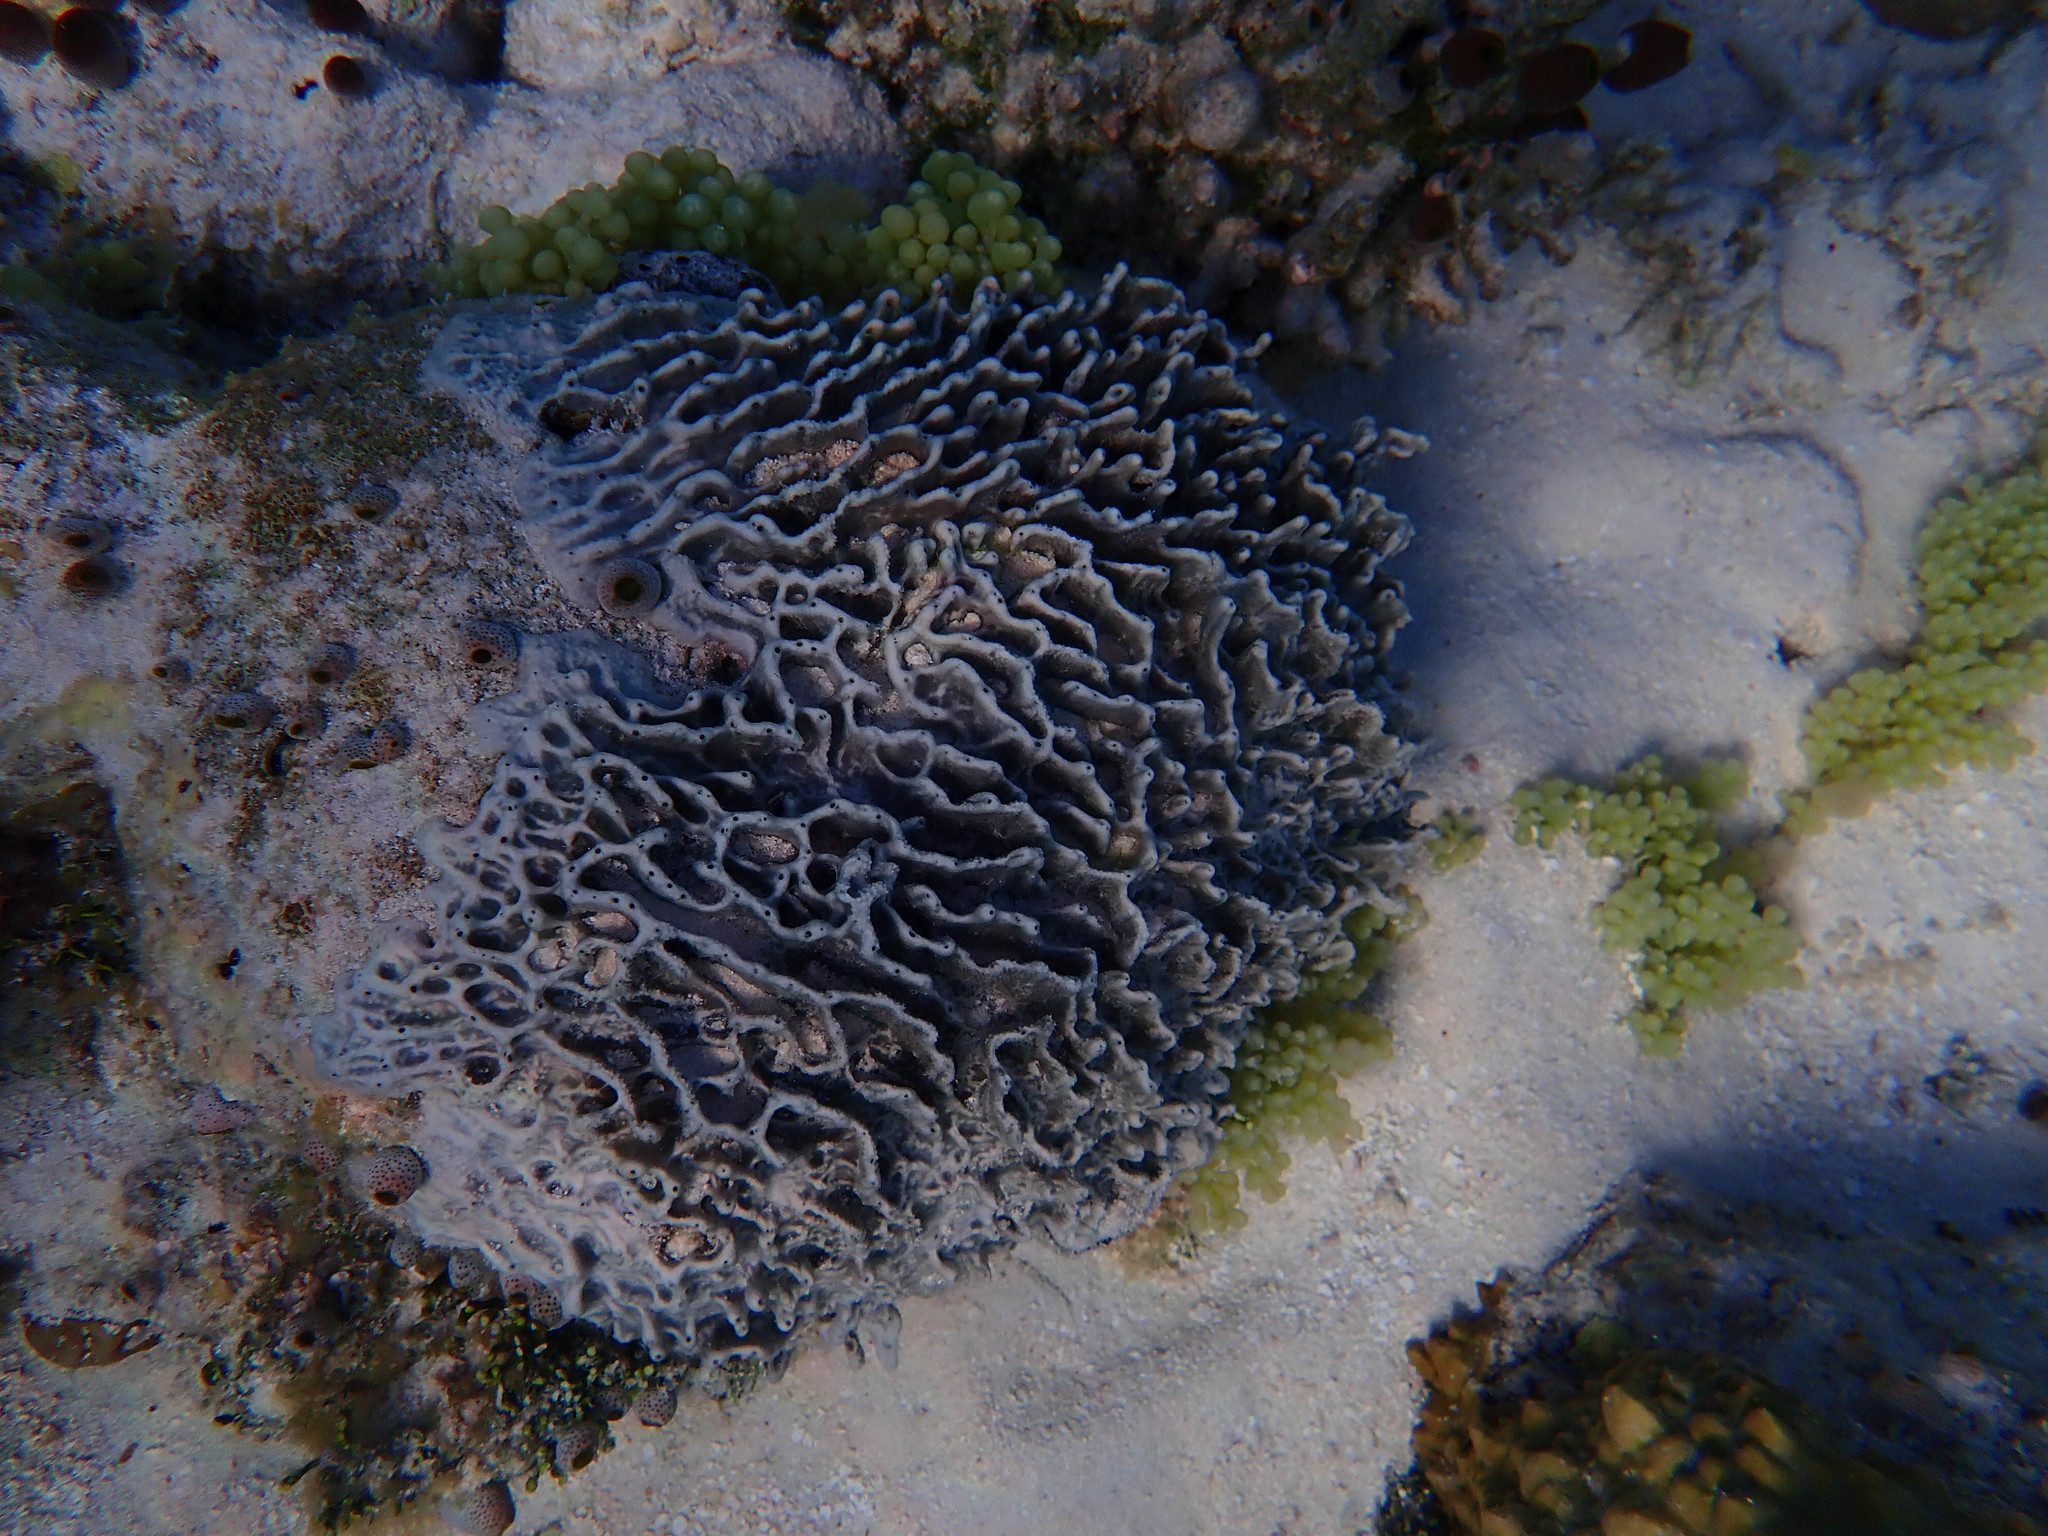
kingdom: Animalia
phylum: Porifera
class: Demospongiae
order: Dictyoceratida
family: Dysideidae
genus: Lamellodysidea
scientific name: Lamellodysidea herbacea
